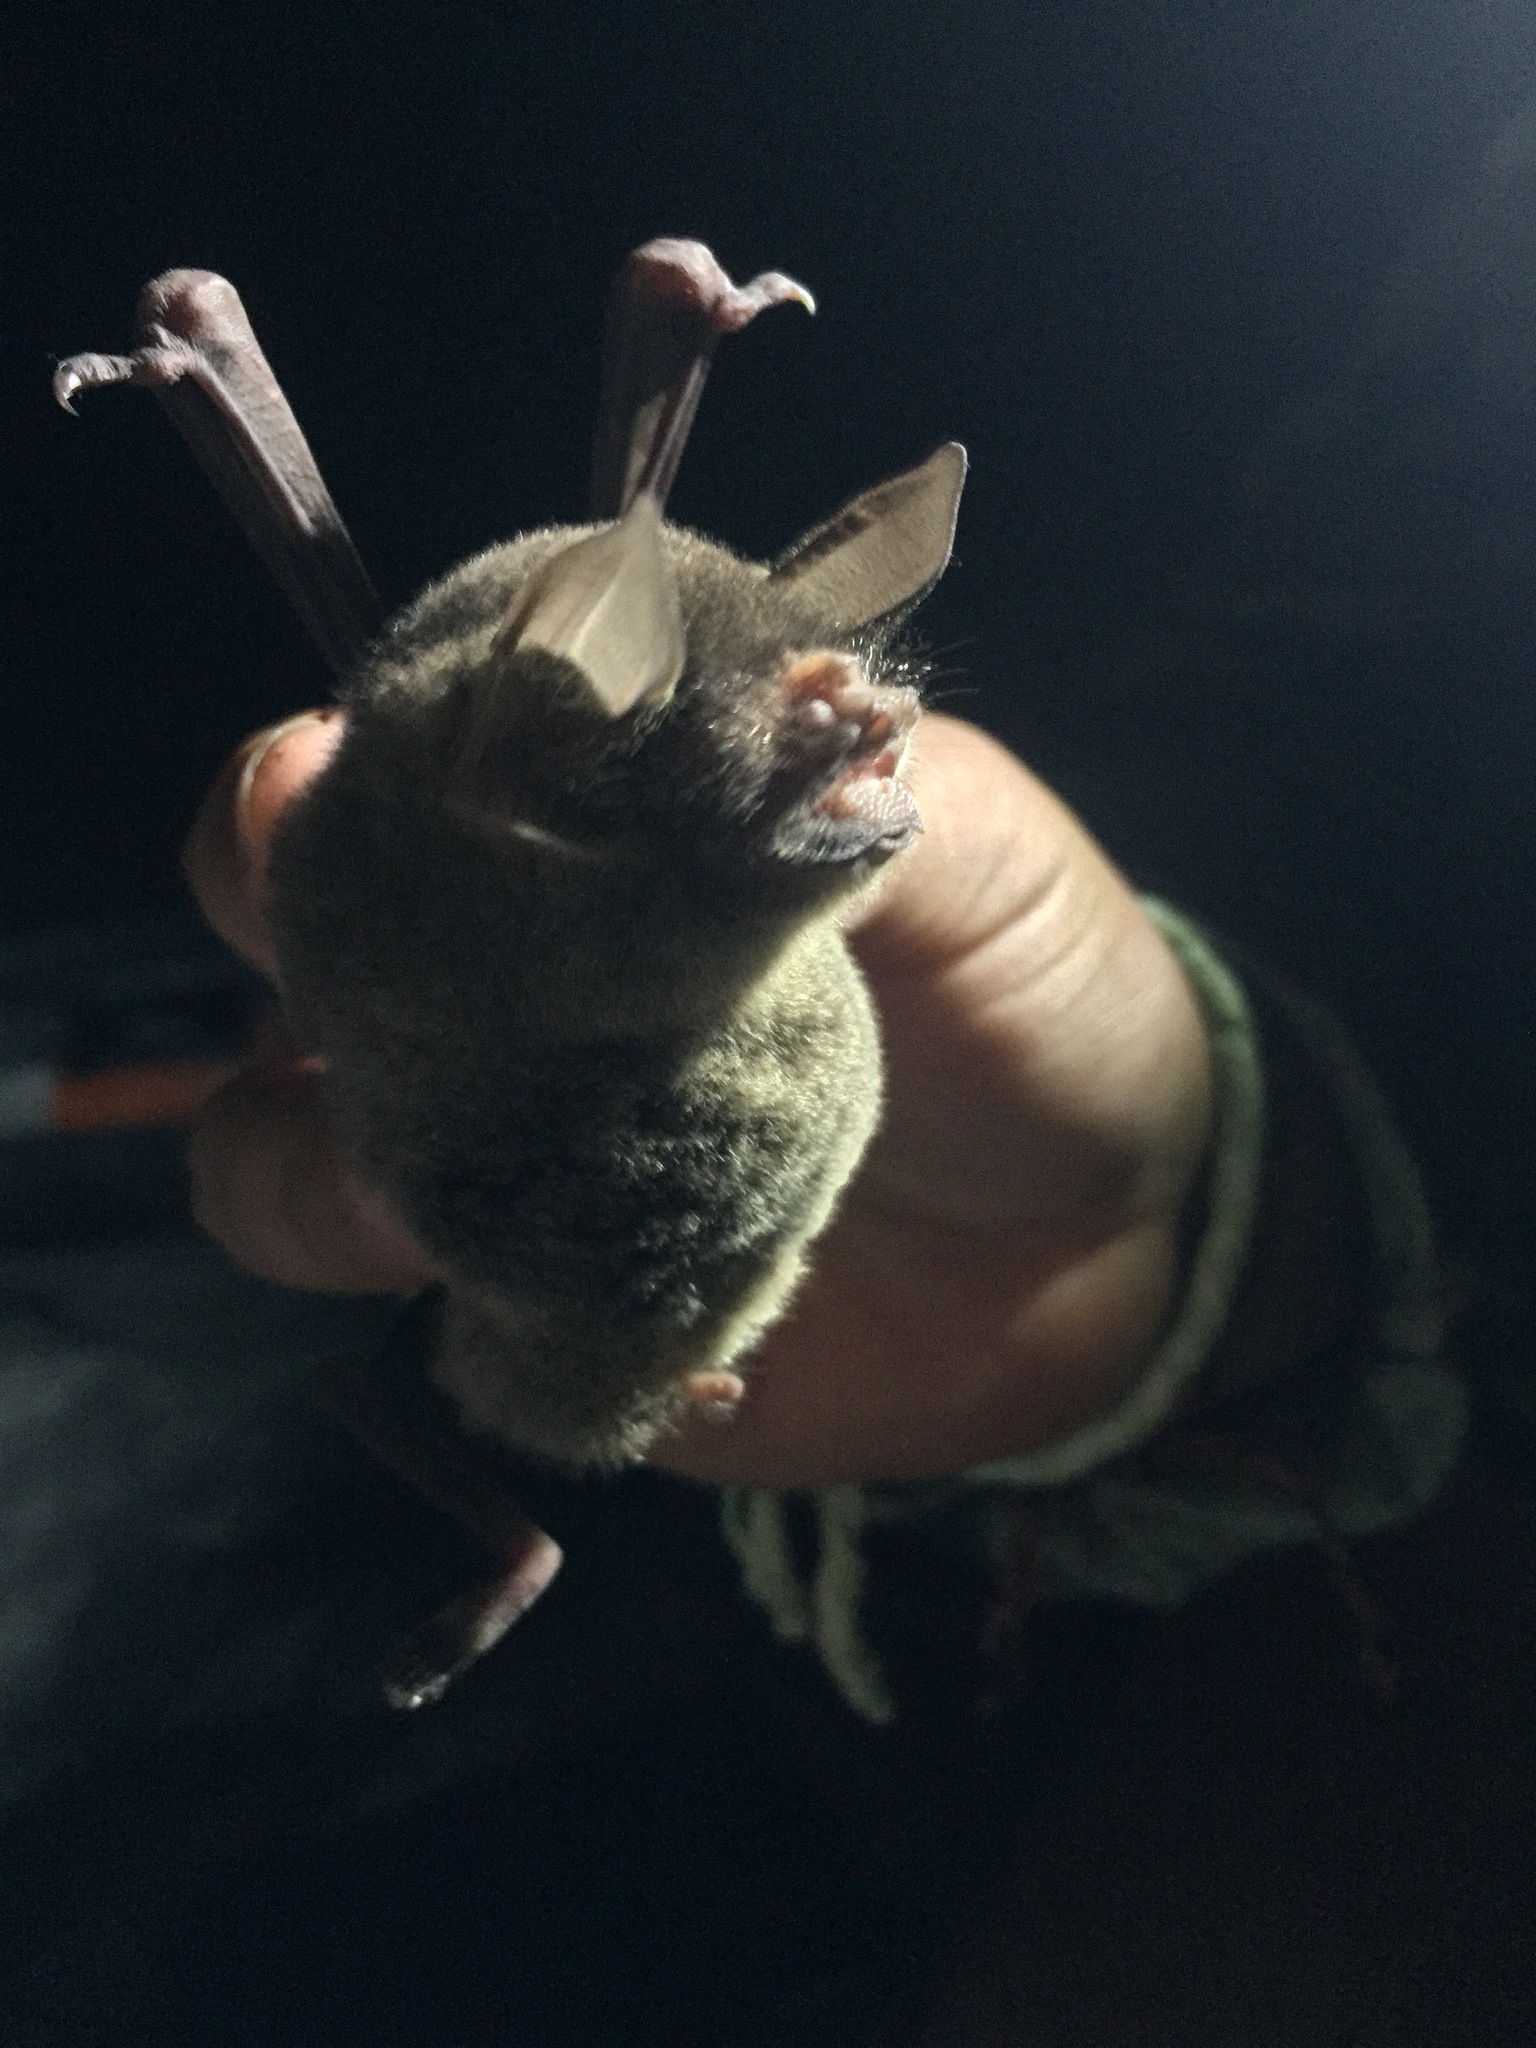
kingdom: Animalia
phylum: Chordata
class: Mammalia
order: Chiroptera
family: Mormoopidae
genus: Pteronotus
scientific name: Pteronotus mesoamericanus
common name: Mesoamerican common mustached bat
